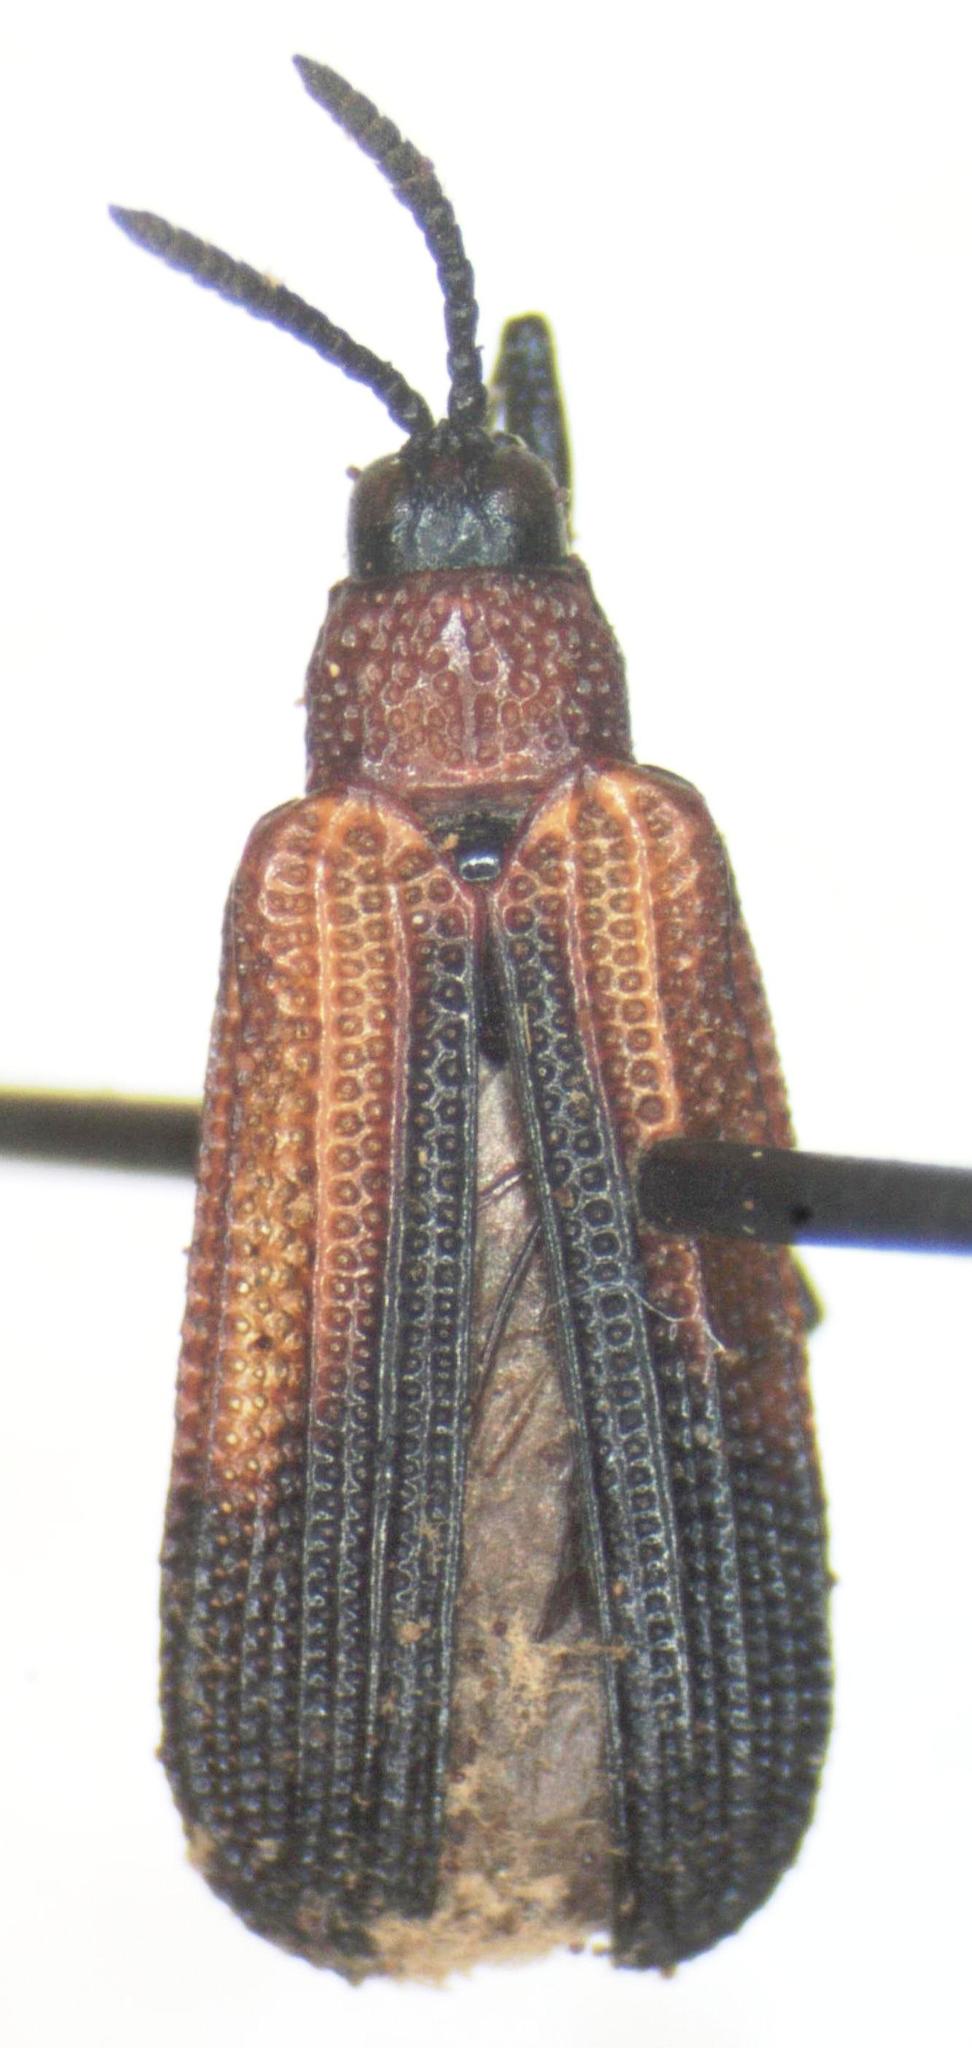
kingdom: Animalia
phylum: Arthropoda
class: Insecta
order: Coleoptera
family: Chrysomelidae
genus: Chalepus
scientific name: Chalepus similatus
